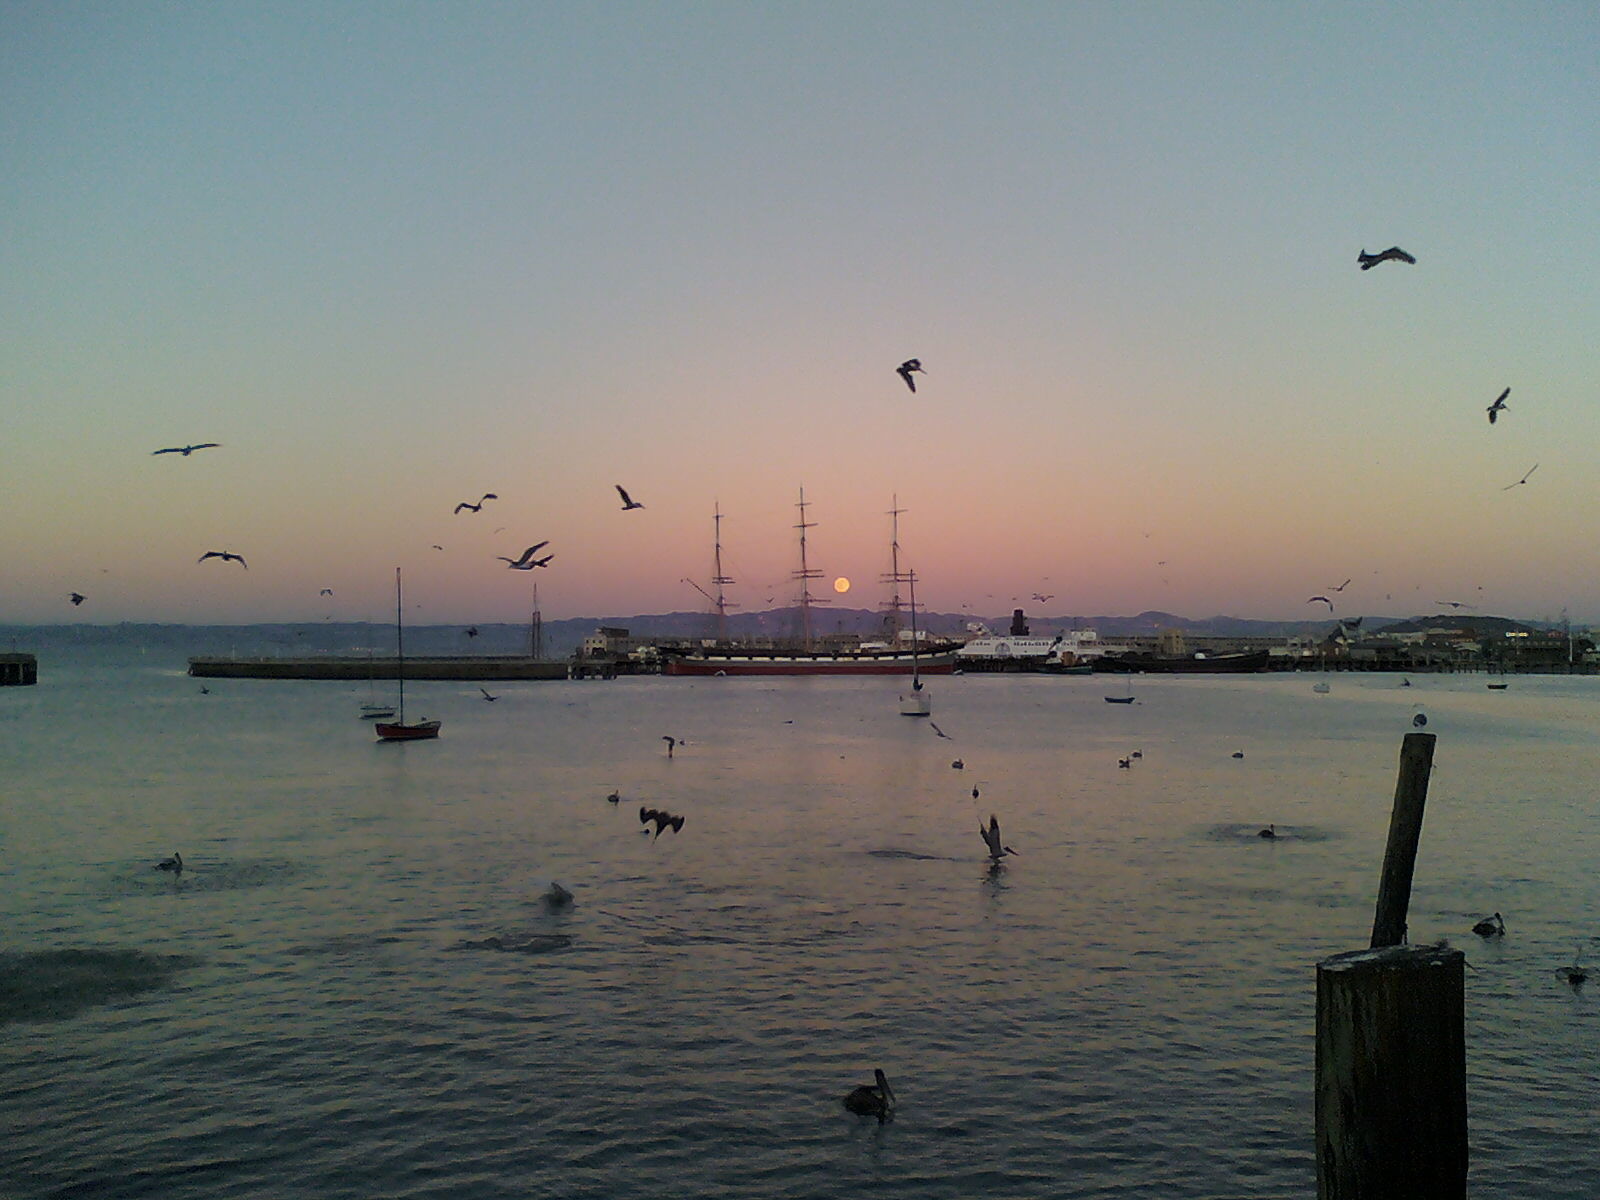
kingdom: Animalia
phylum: Chordata
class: Aves
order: Pelecaniformes
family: Pelecanidae
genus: Pelecanus
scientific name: Pelecanus occidentalis
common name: Brown pelican
